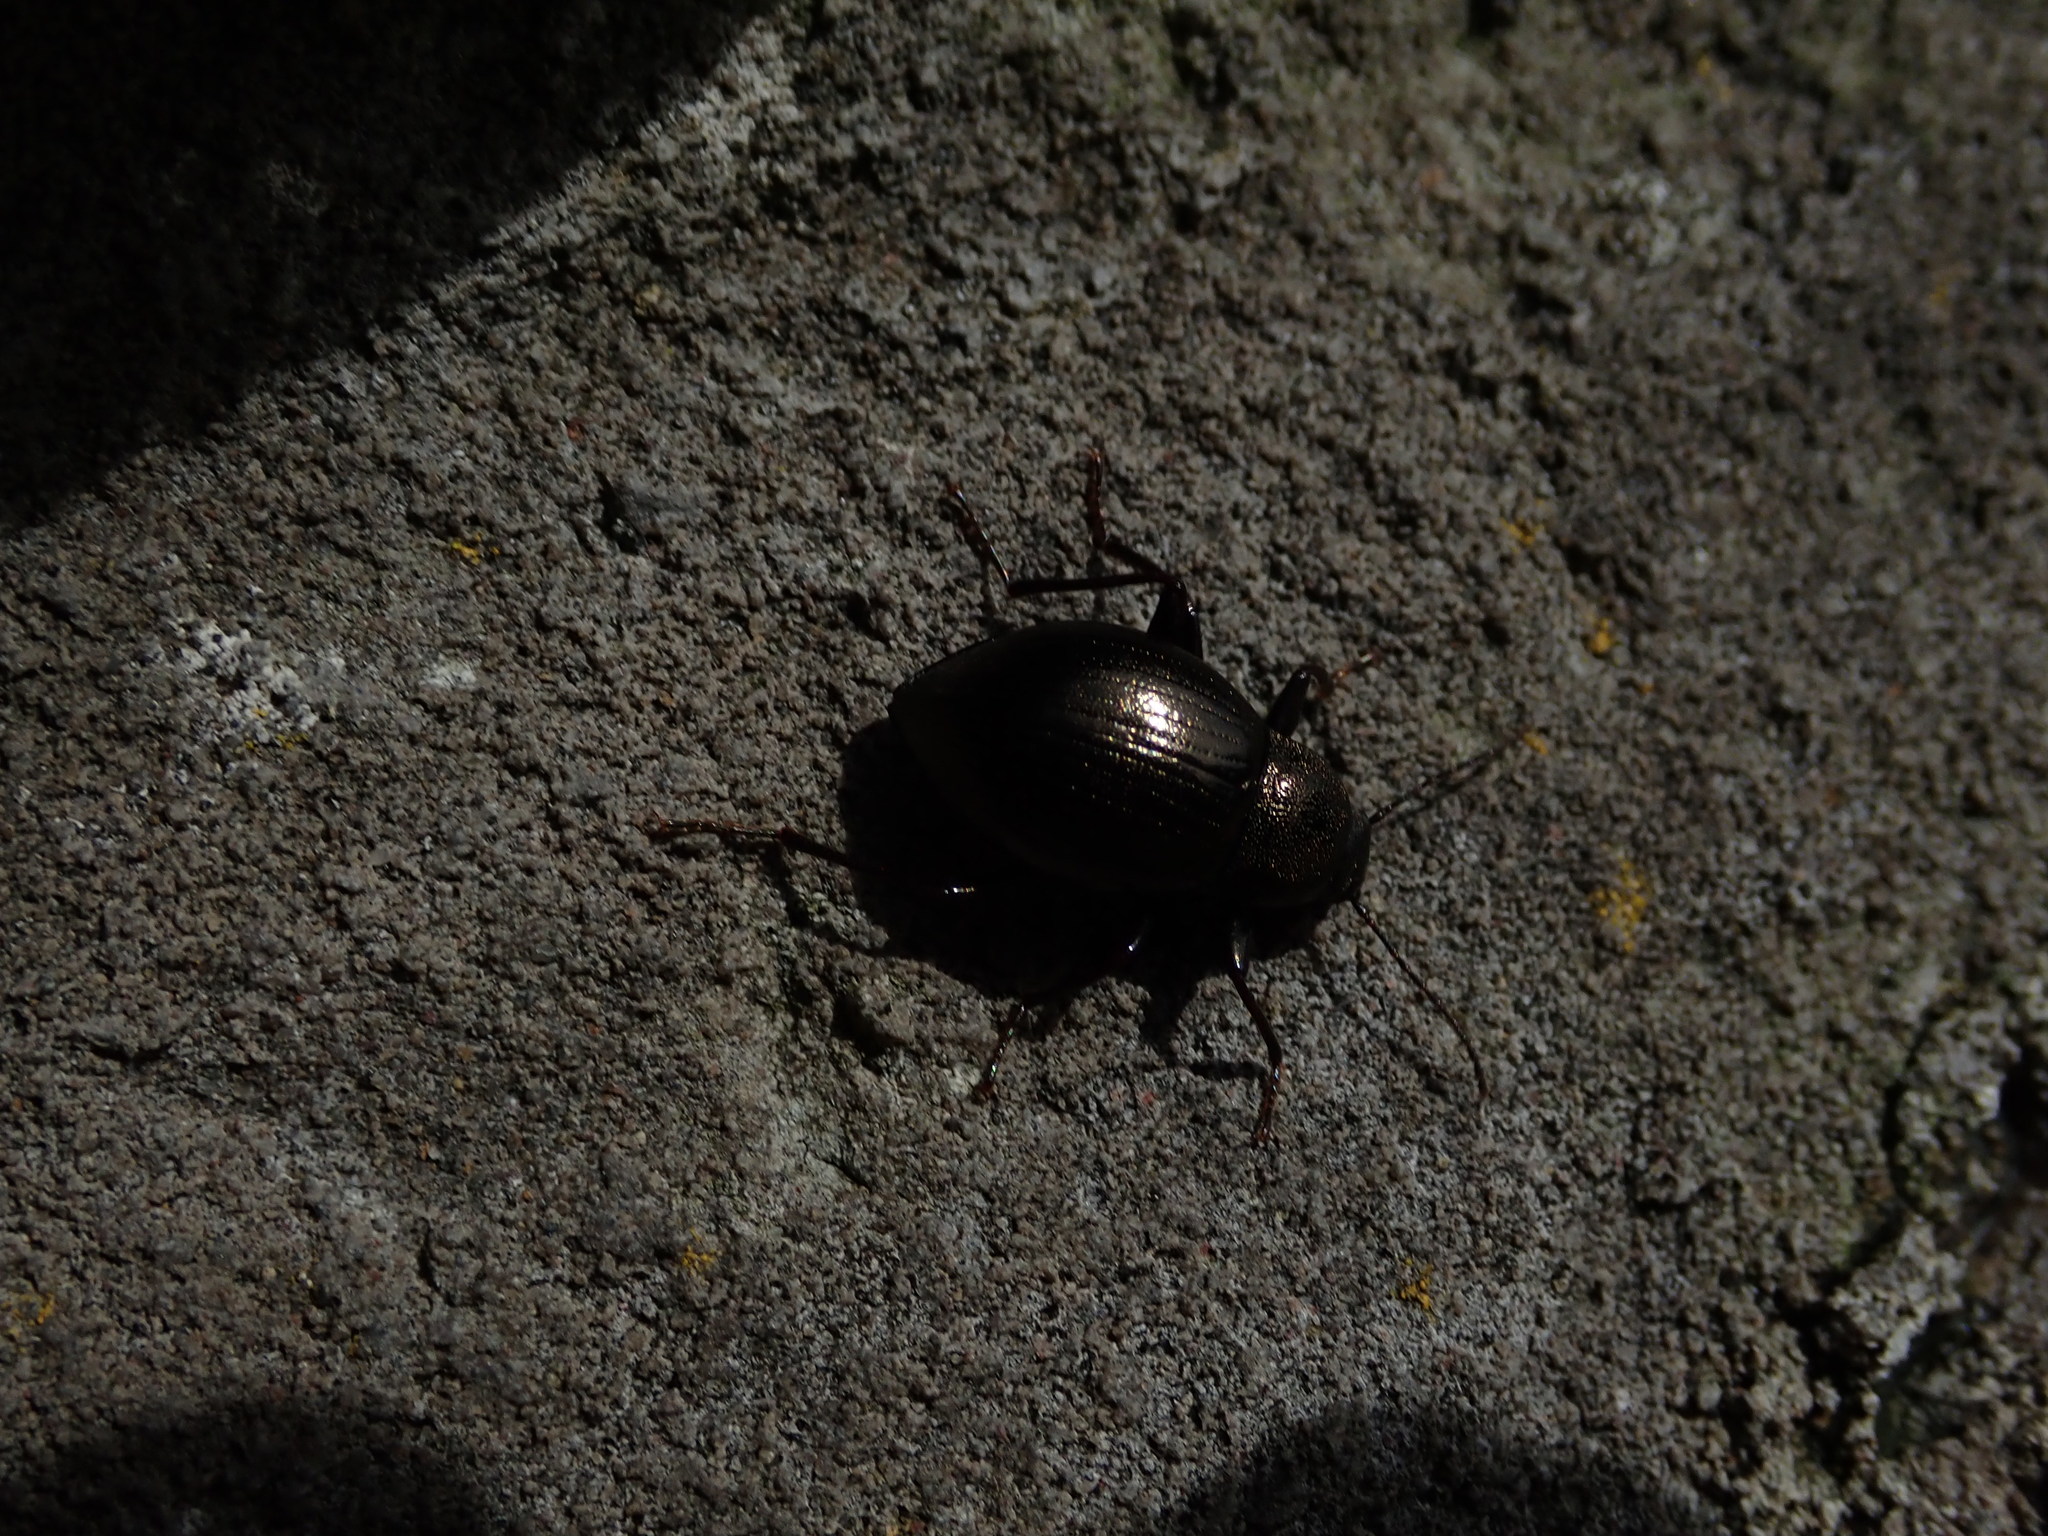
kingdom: Animalia
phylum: Arthropoda
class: Insecta
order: Coleoptera
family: Tenebrionidae
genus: Meracantha
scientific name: Meracantha contracta
